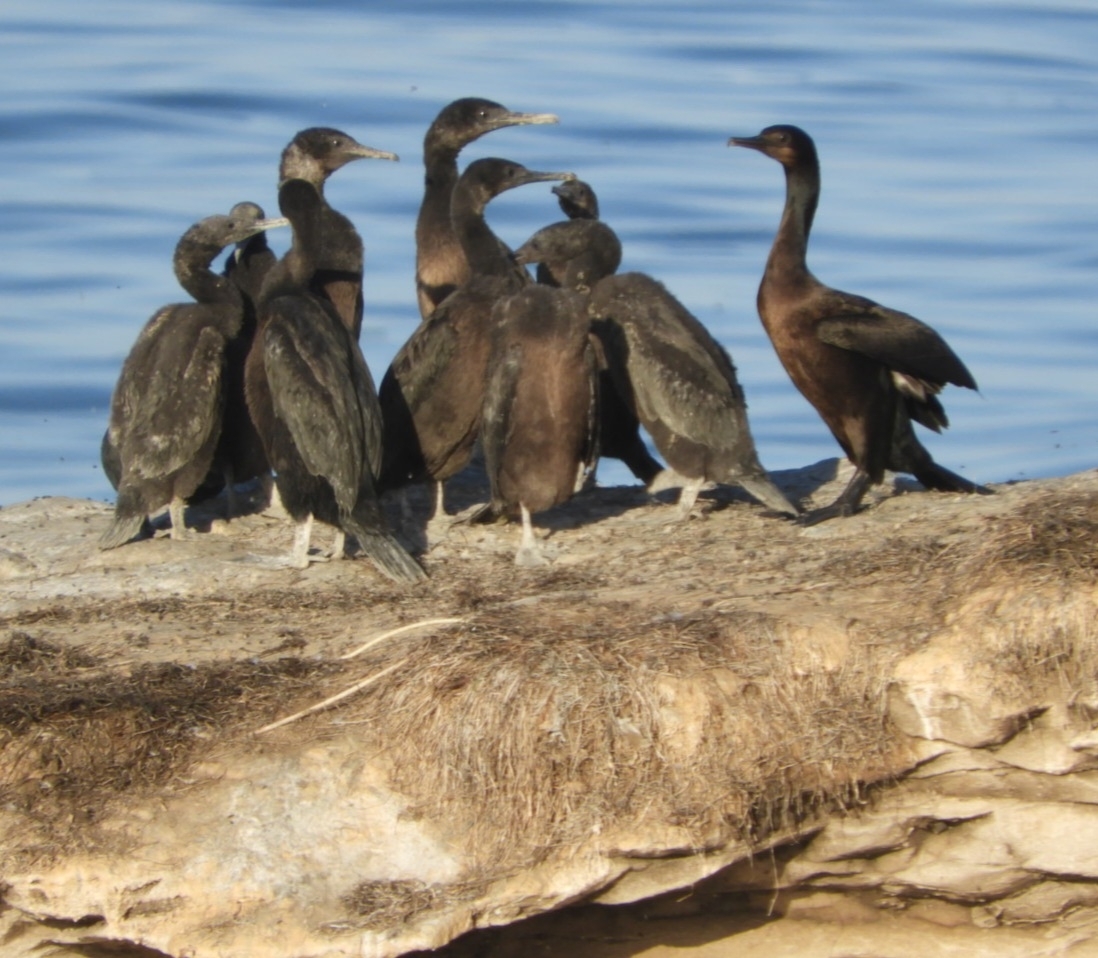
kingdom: Animalia
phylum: Chordata
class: Aves
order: Suliformes
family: Phalacrocoracidae
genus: Urile
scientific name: Urile penicillatus
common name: Brandt's cormorant
